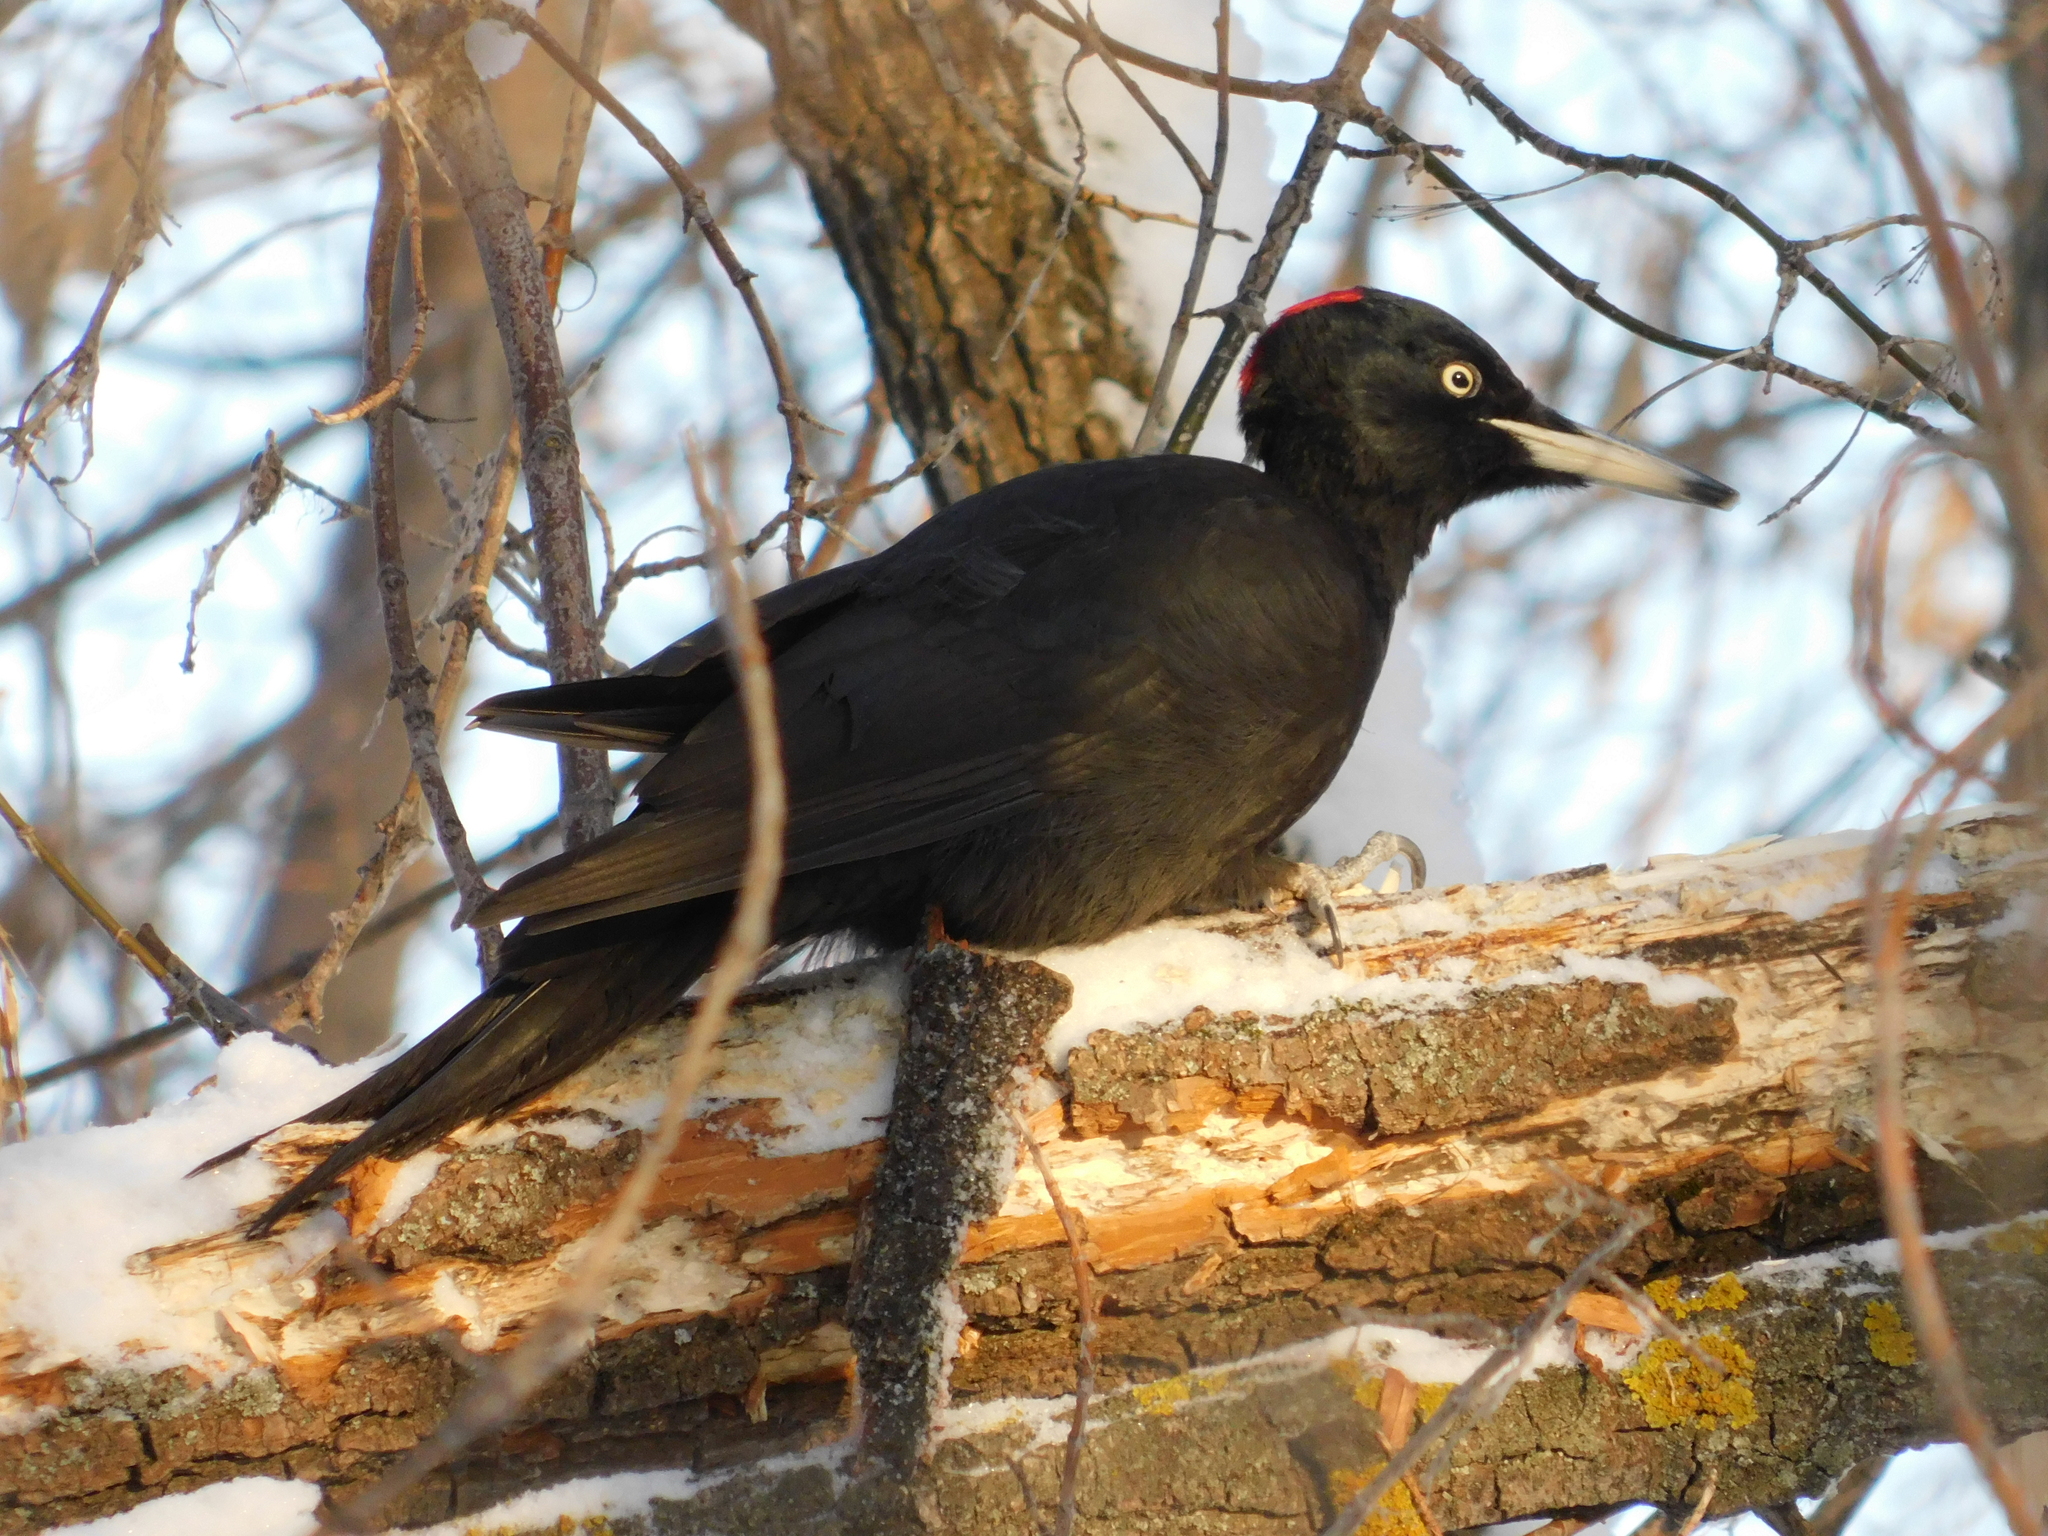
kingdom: Animalia
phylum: Chordata
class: Aves
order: Piciformes
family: Picidae
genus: Dryocopus
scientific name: Dryocopus martius
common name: Black woodpecker
